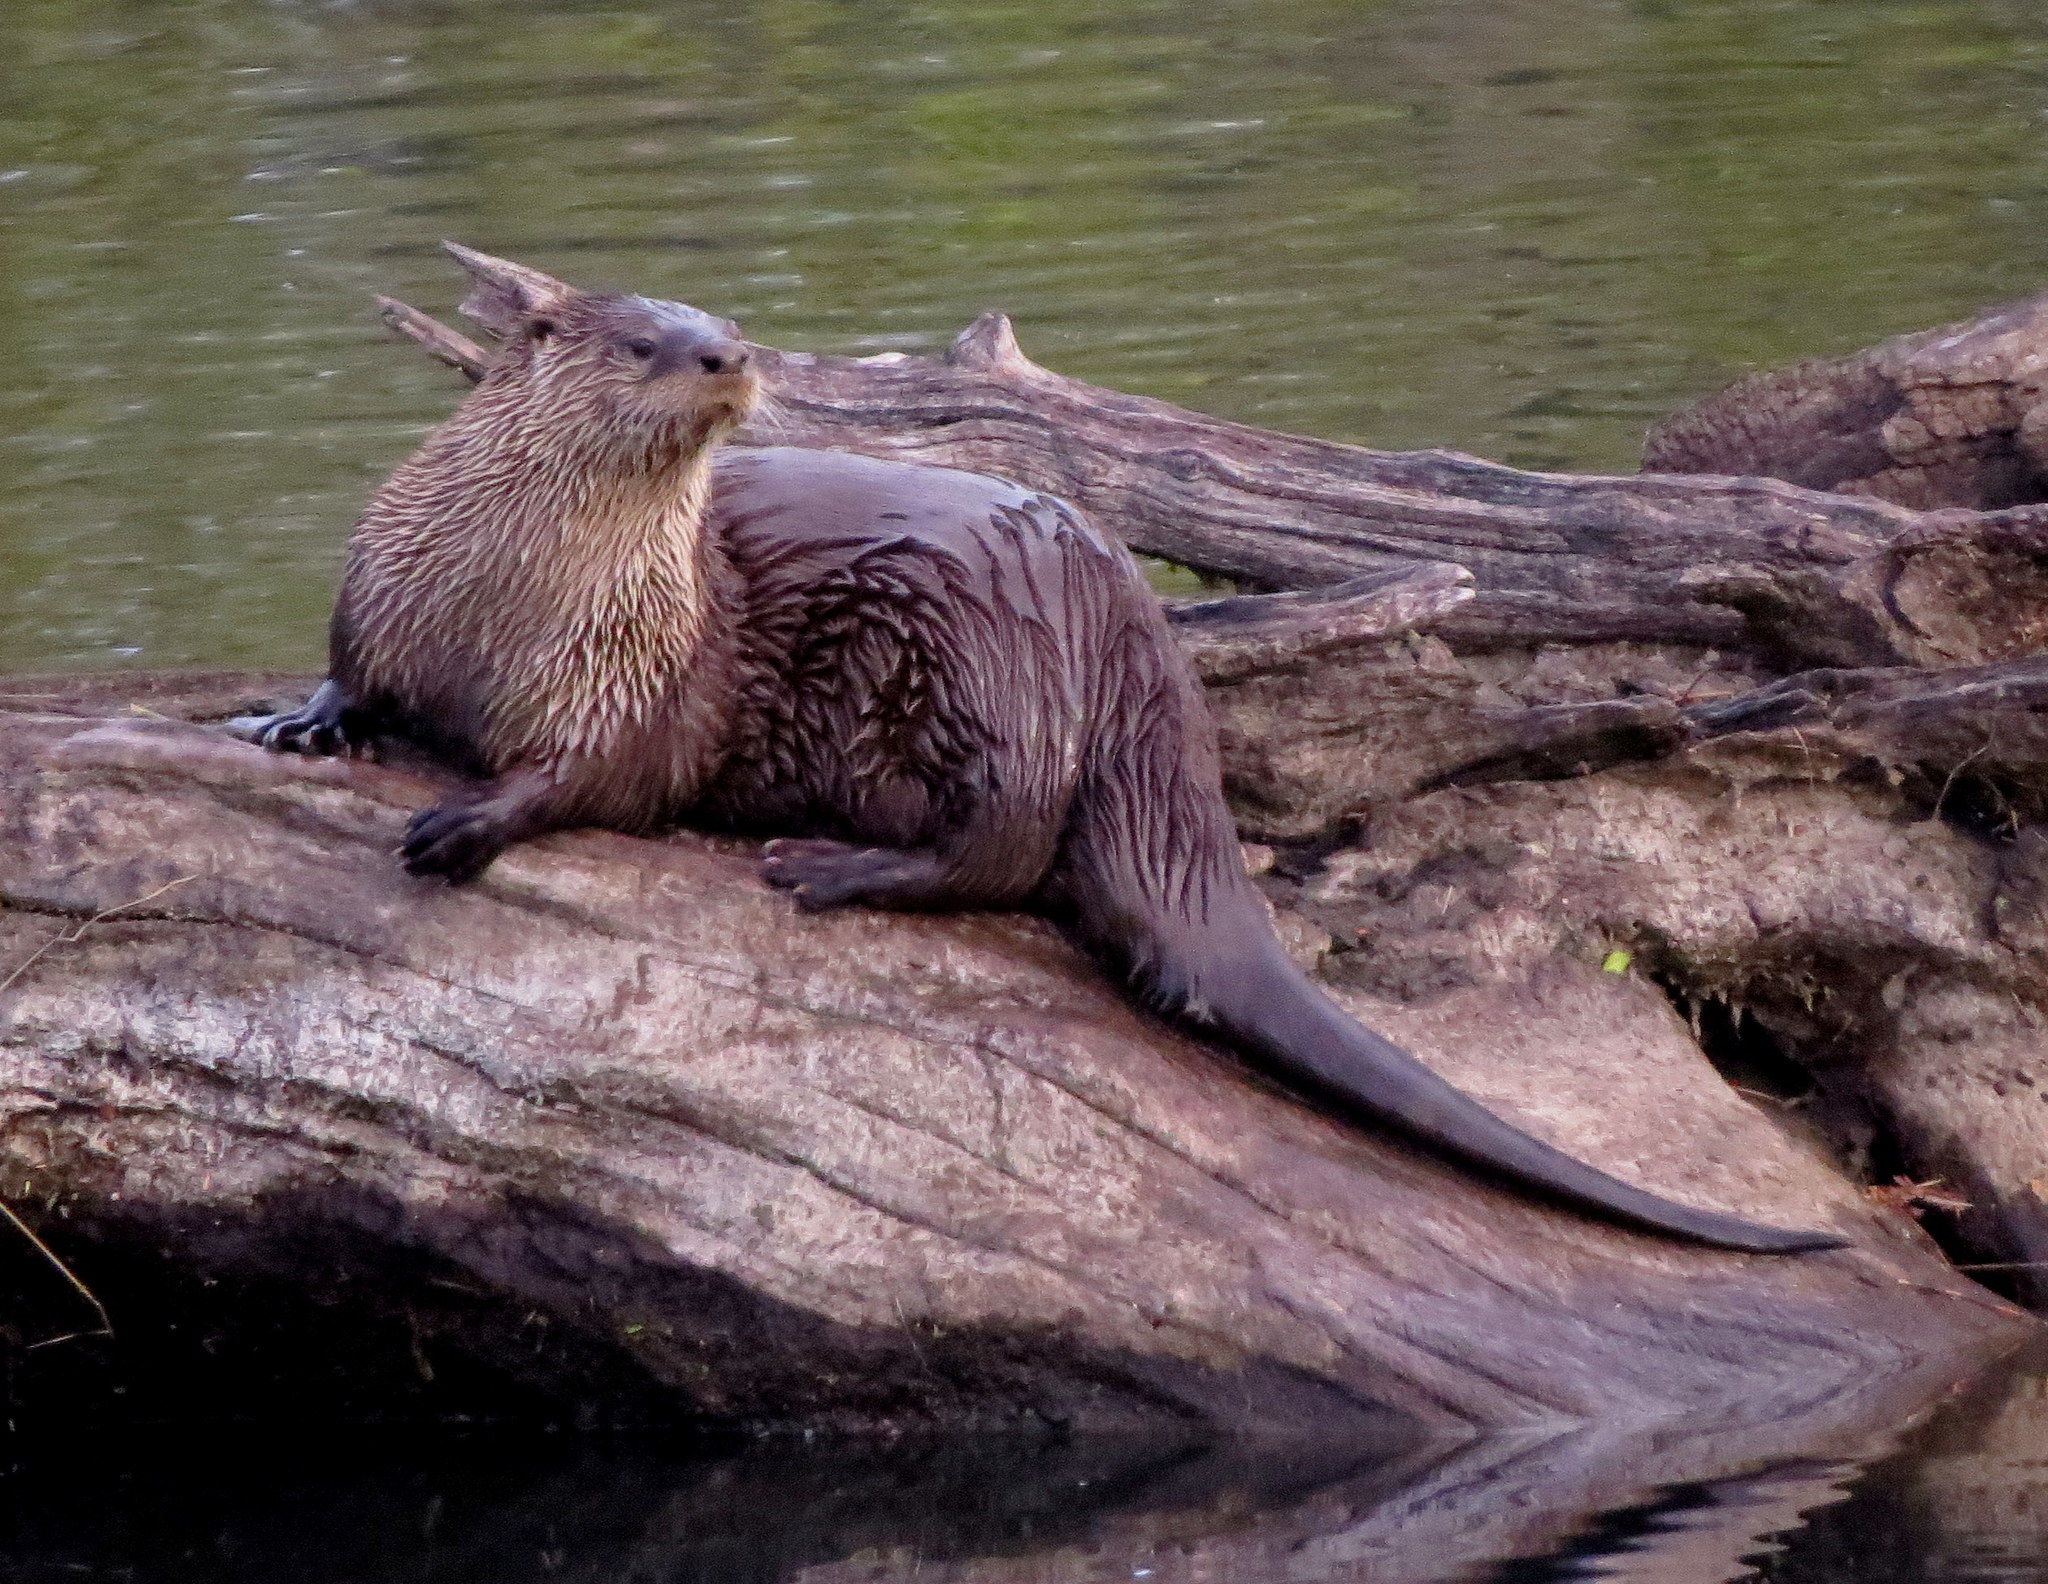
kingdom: Animalia
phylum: Chordata
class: Mammalia
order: Carnivora
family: Mustelidae
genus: Lontra
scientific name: Lontra canadensis
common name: North american river otter
